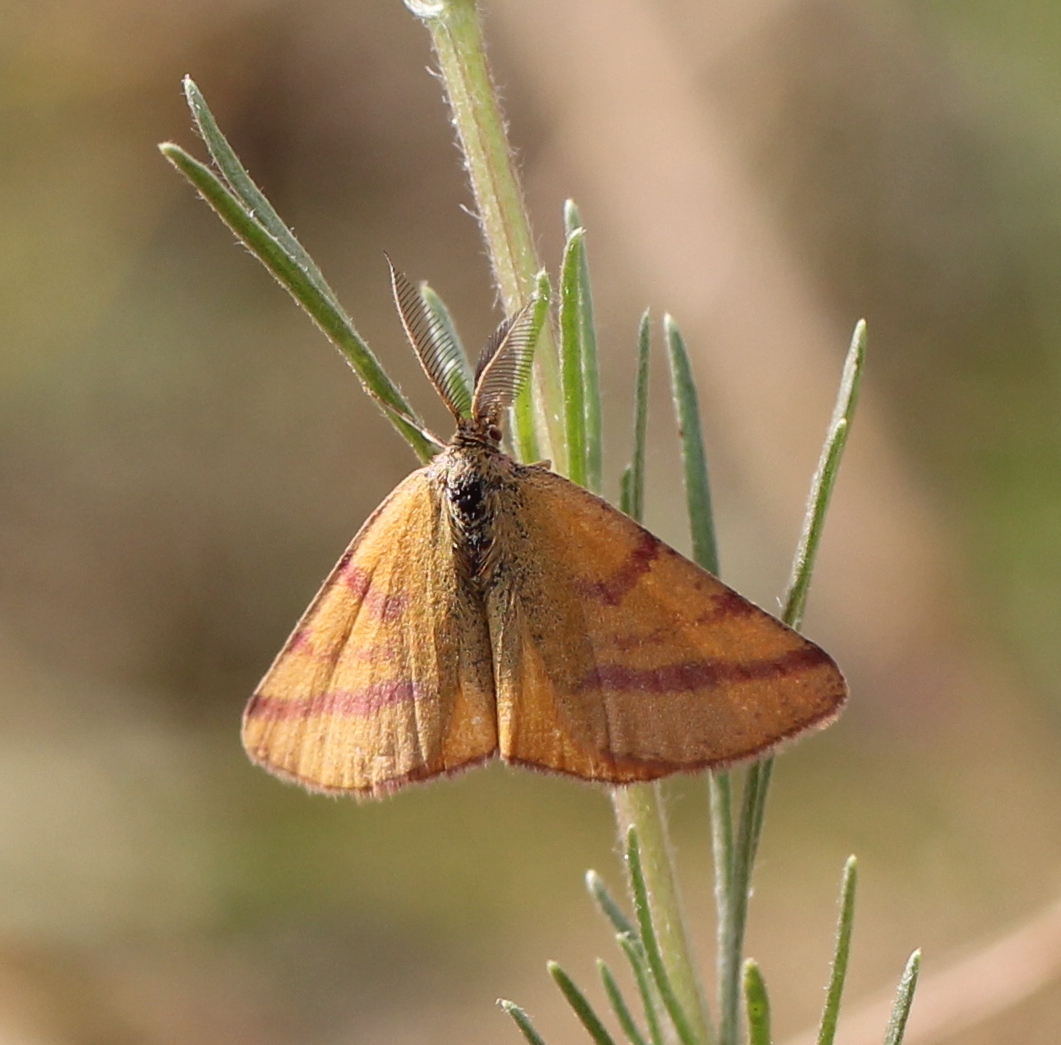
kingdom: Animalia
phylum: Arthropoda
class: Insecta
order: Lepidoptera
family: Geometridae
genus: Lythria
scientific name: Lythria purpuraria
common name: Purple-barred yellow
